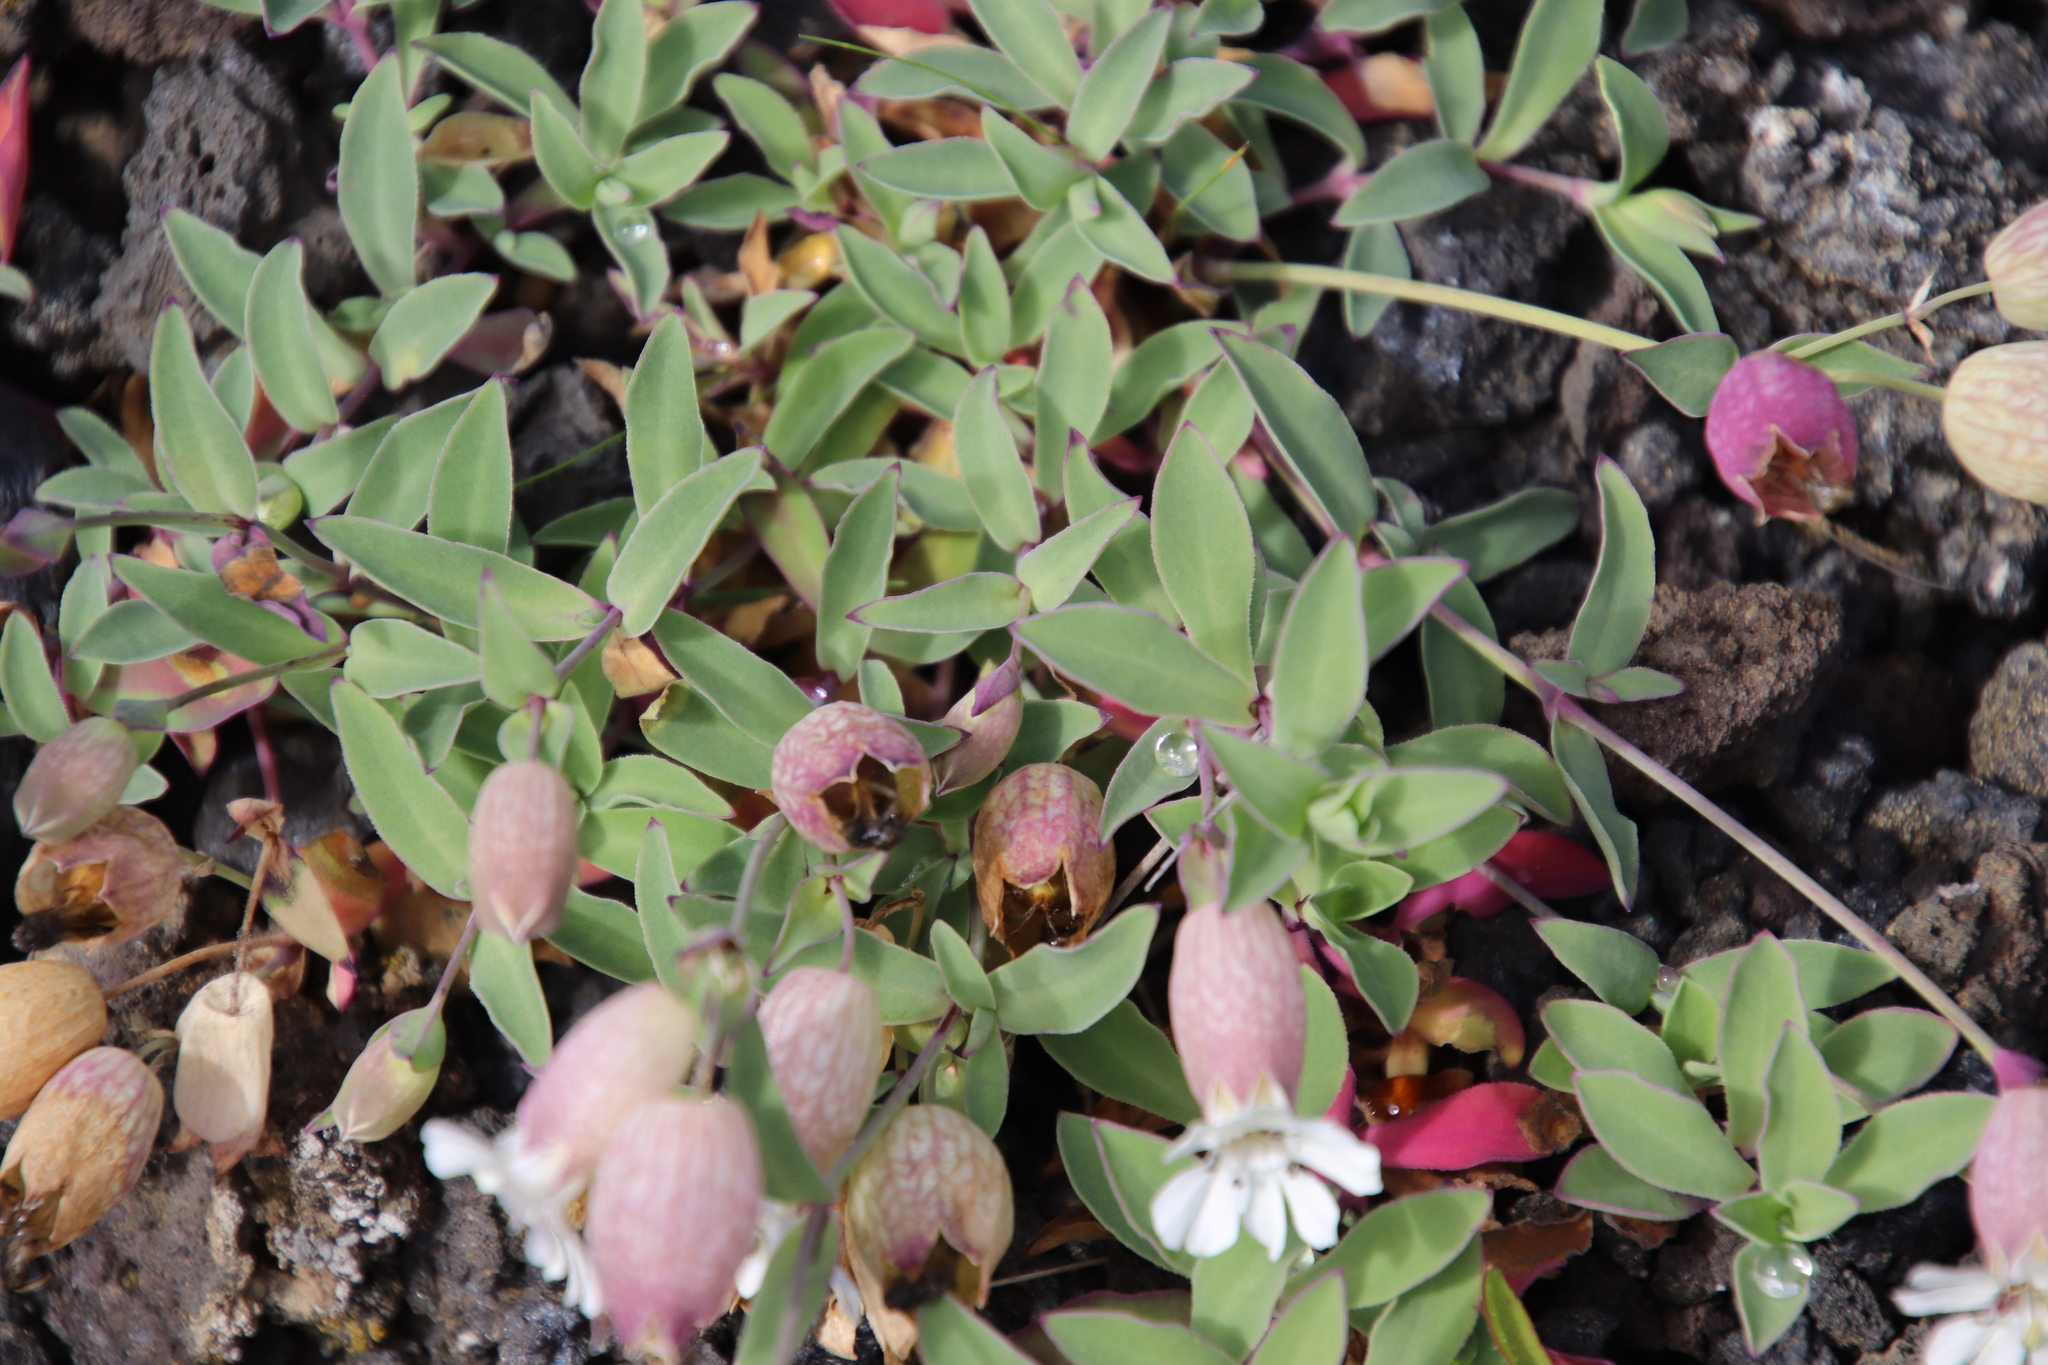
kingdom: Plantae
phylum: Tracheophyta
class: Magnoliopsida
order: Caryophyllales
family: Caryophyllaceae
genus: Silene
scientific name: Silene uniflora
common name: Sea campion
